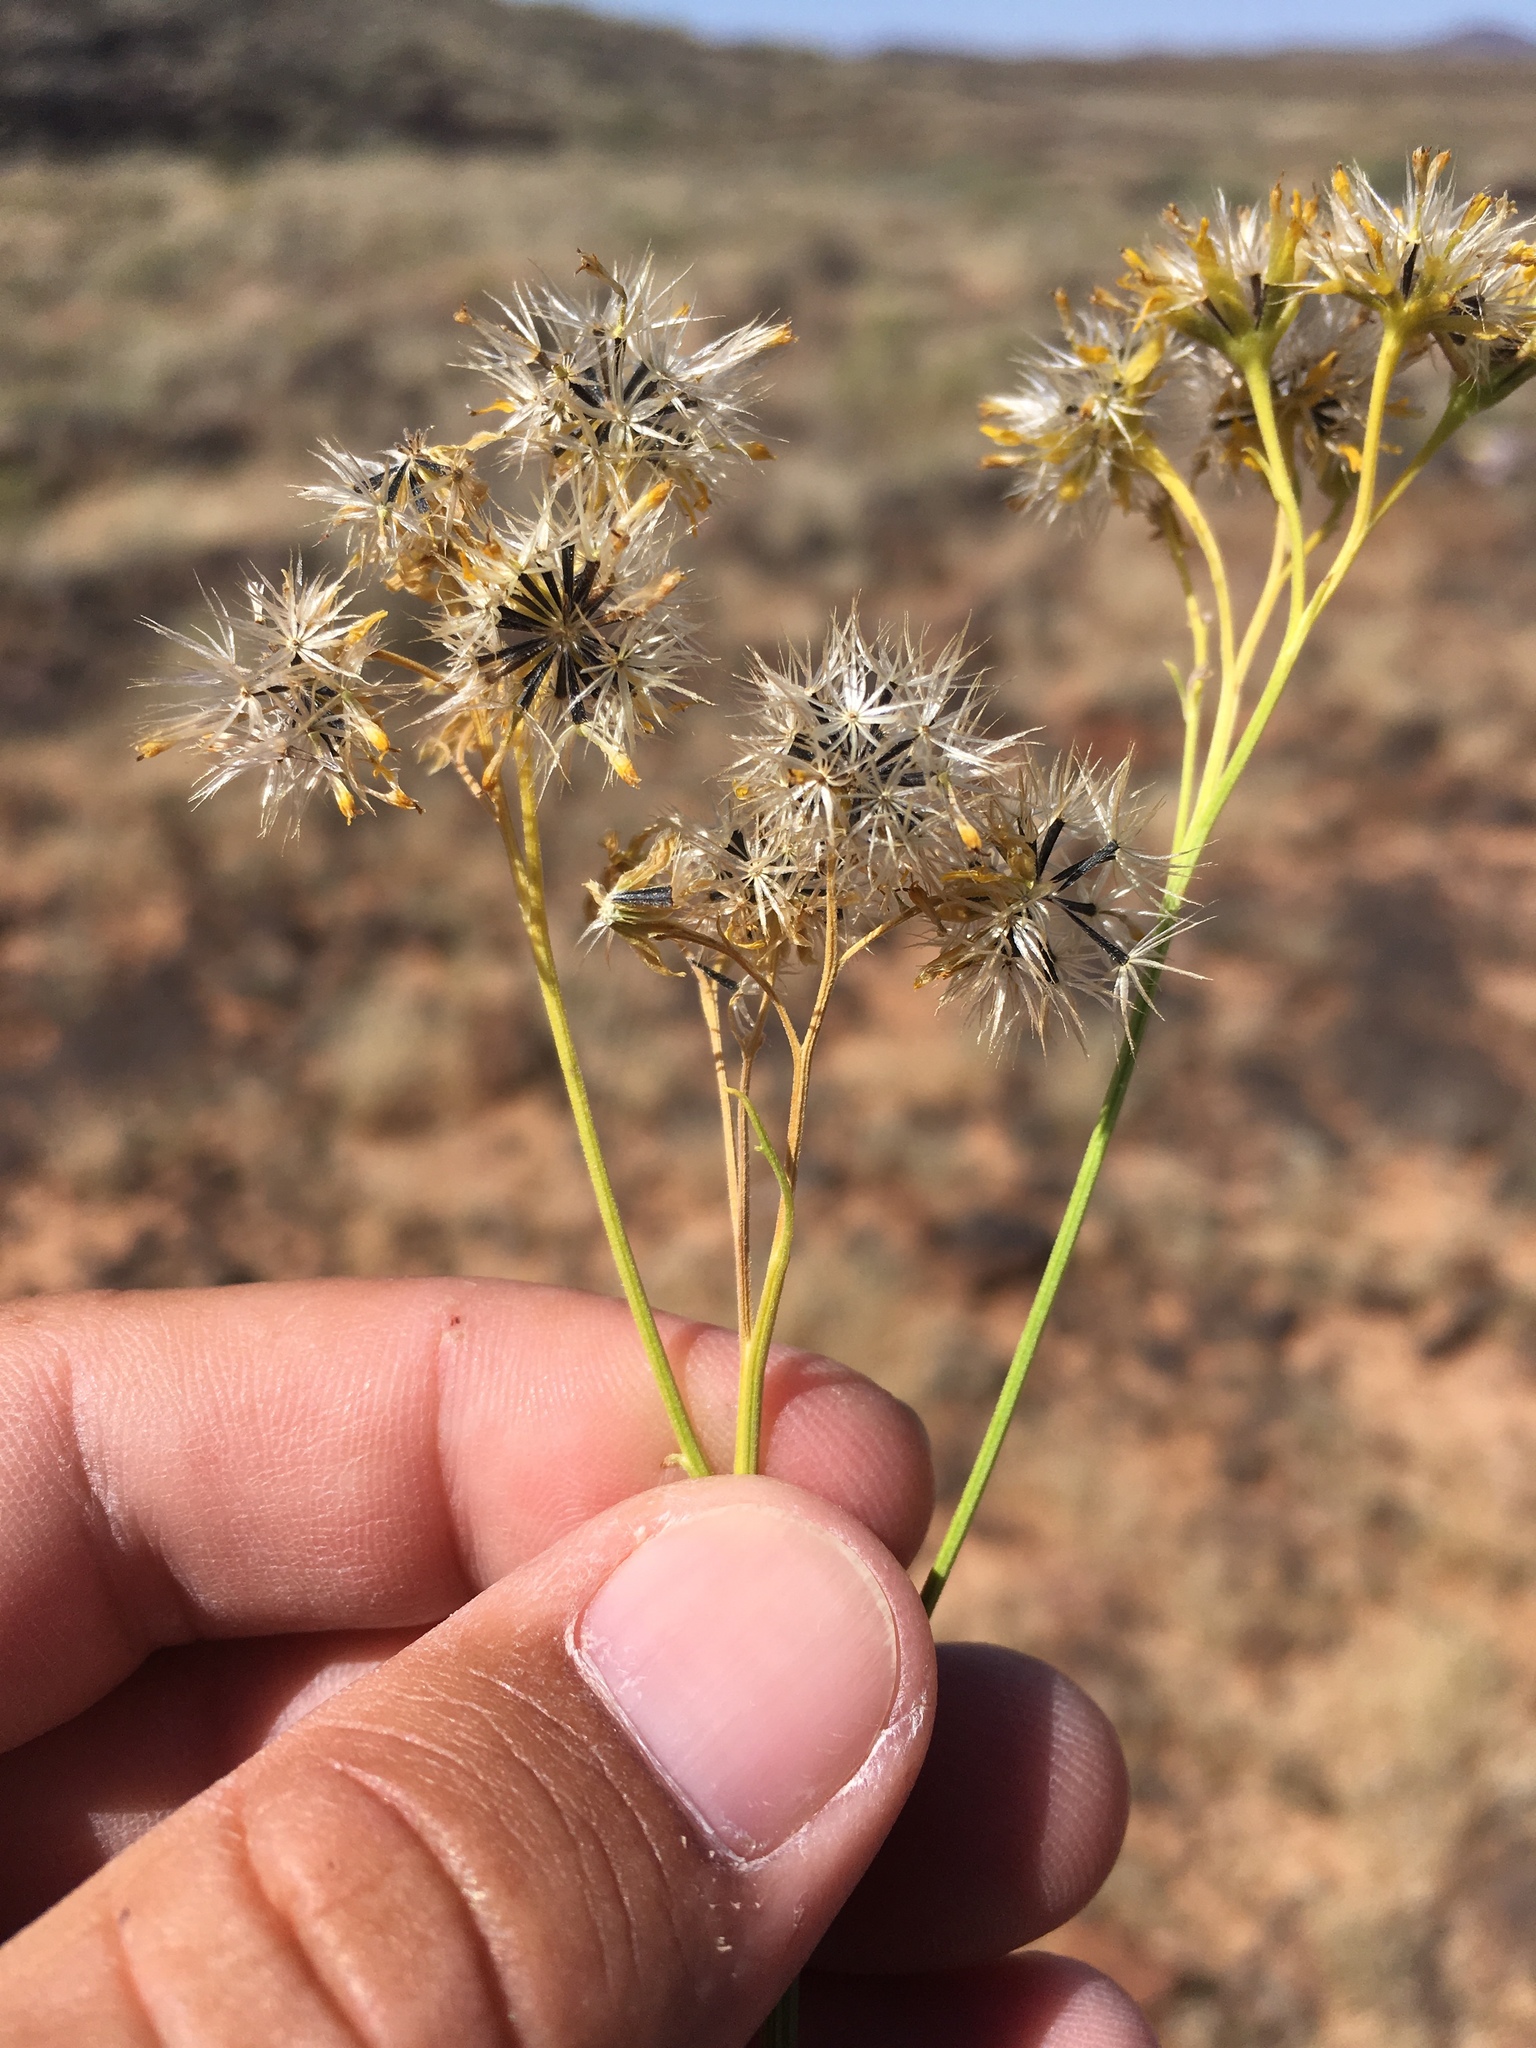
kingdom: Plantae
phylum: Tracheophyta
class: Magnoliopsida
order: Asterales
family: Asteraceae
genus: Hymenothrix
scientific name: Hymenothrix wislizeni
